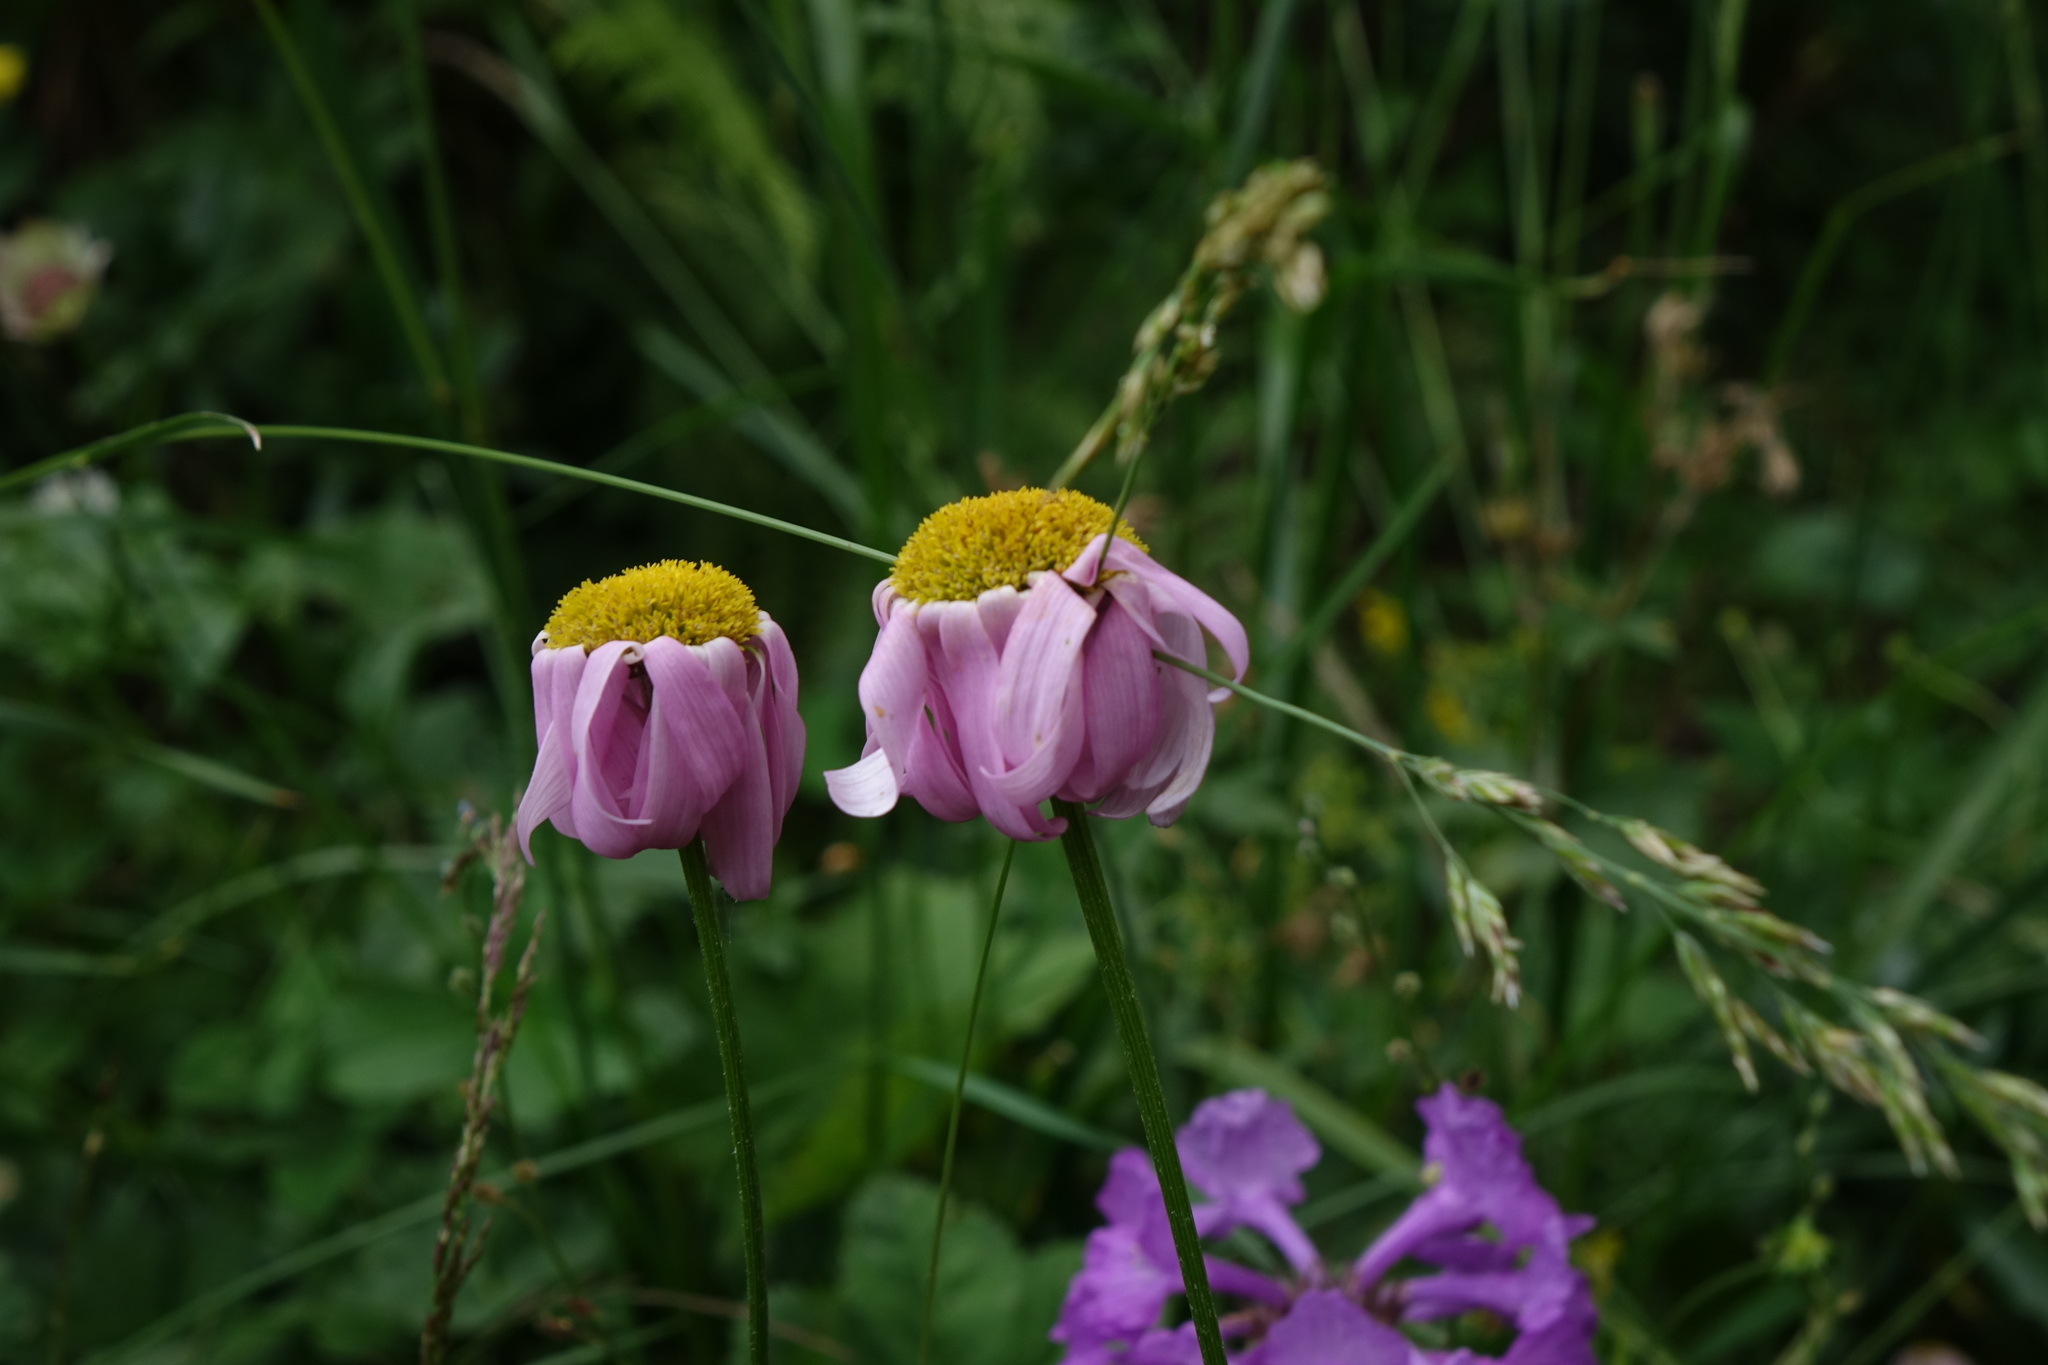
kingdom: Plantae
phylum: Tracheophyta
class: Magnoliopsida
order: Asterales
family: Asteraceae
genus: Tanacetum
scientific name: Tanacetum coccineum
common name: Pyrethum daisy
